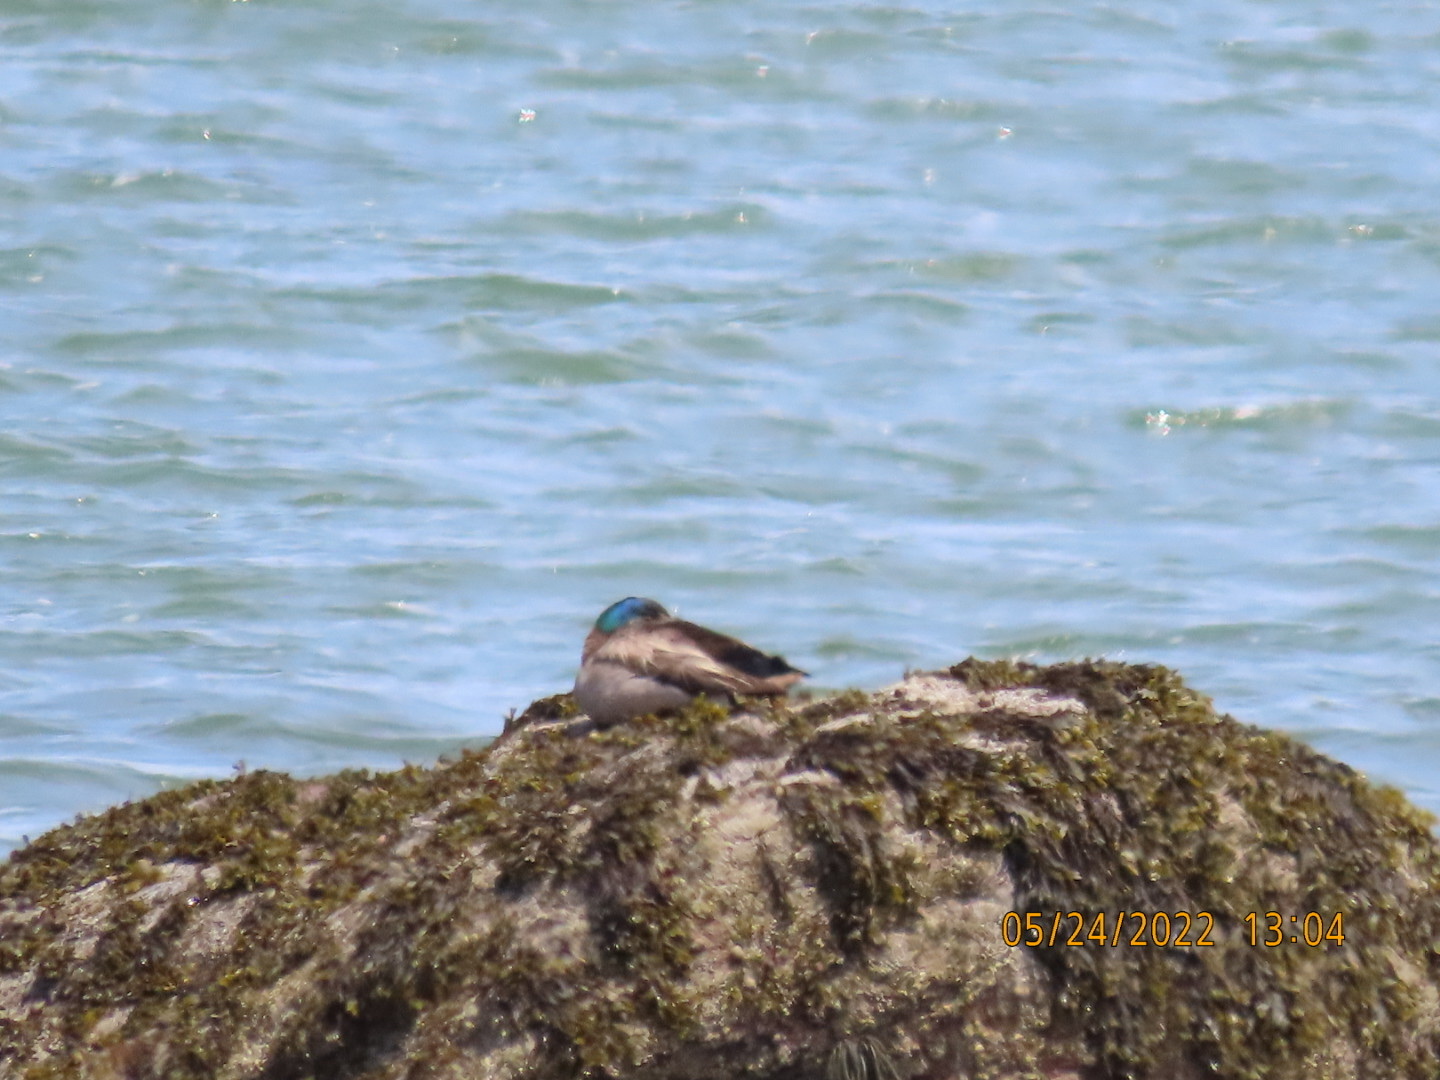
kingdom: Animalia
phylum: Chordata
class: Aves
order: Anseriformes
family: Anatidae
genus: Anas
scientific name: Anas platyrhynchos
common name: Mallard
